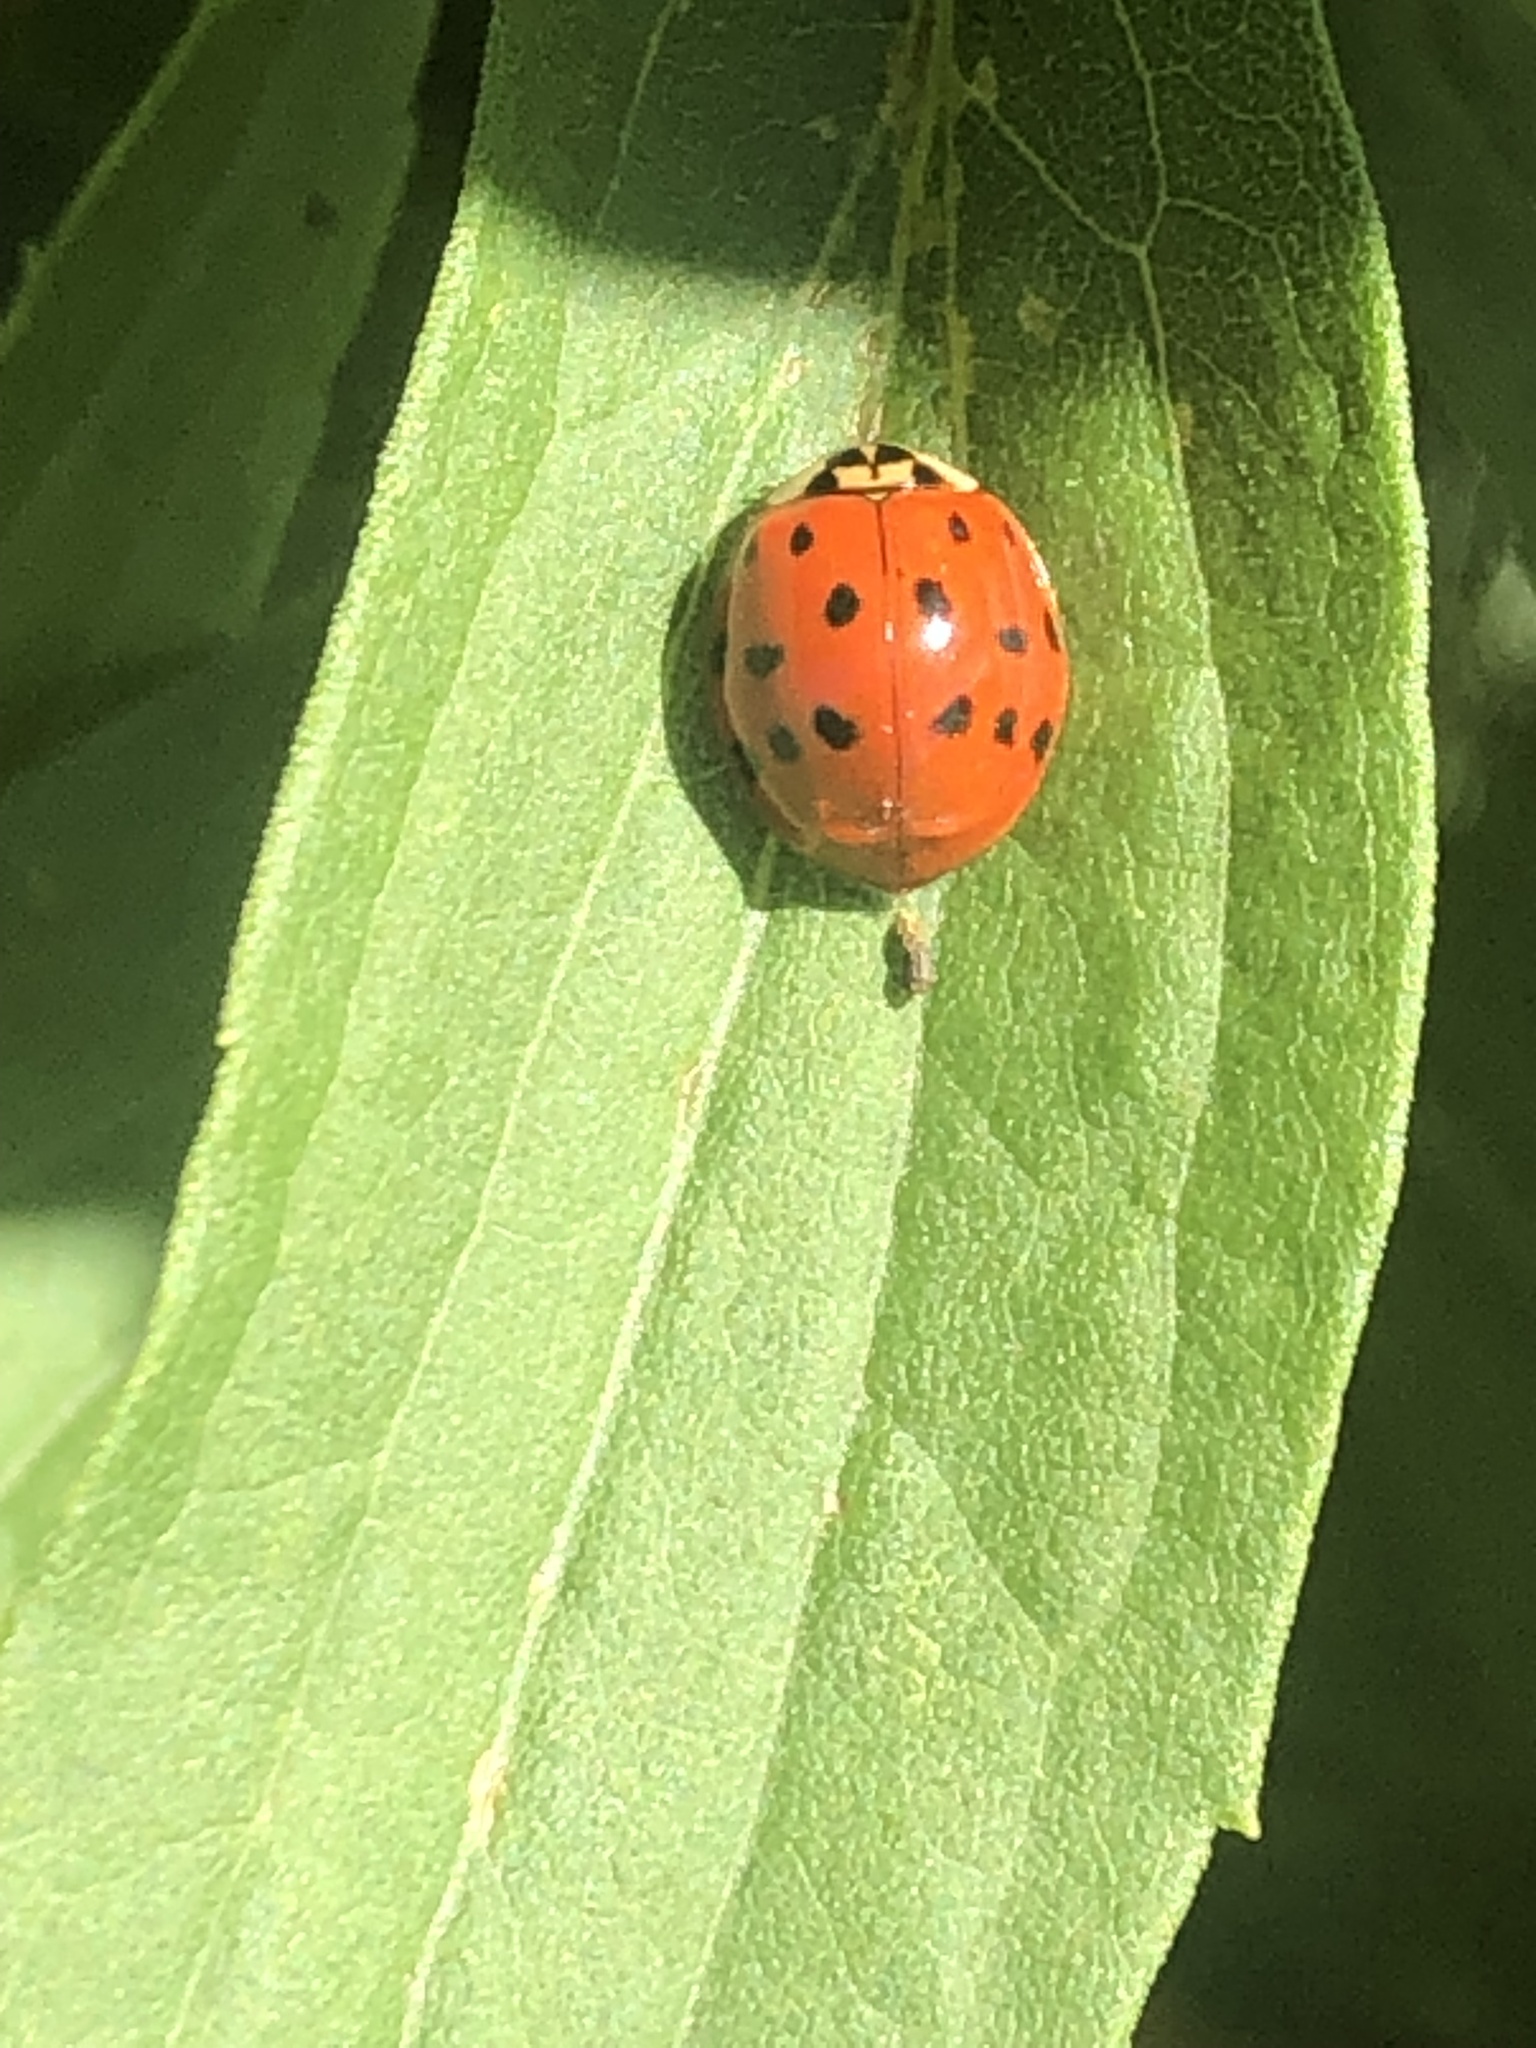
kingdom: Animalia
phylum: Arthropoda
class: Insecta
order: Coleoptera
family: Coccinellidae
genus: Harmonia
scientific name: Harmonia axyridis
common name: Harlequin ladybird
